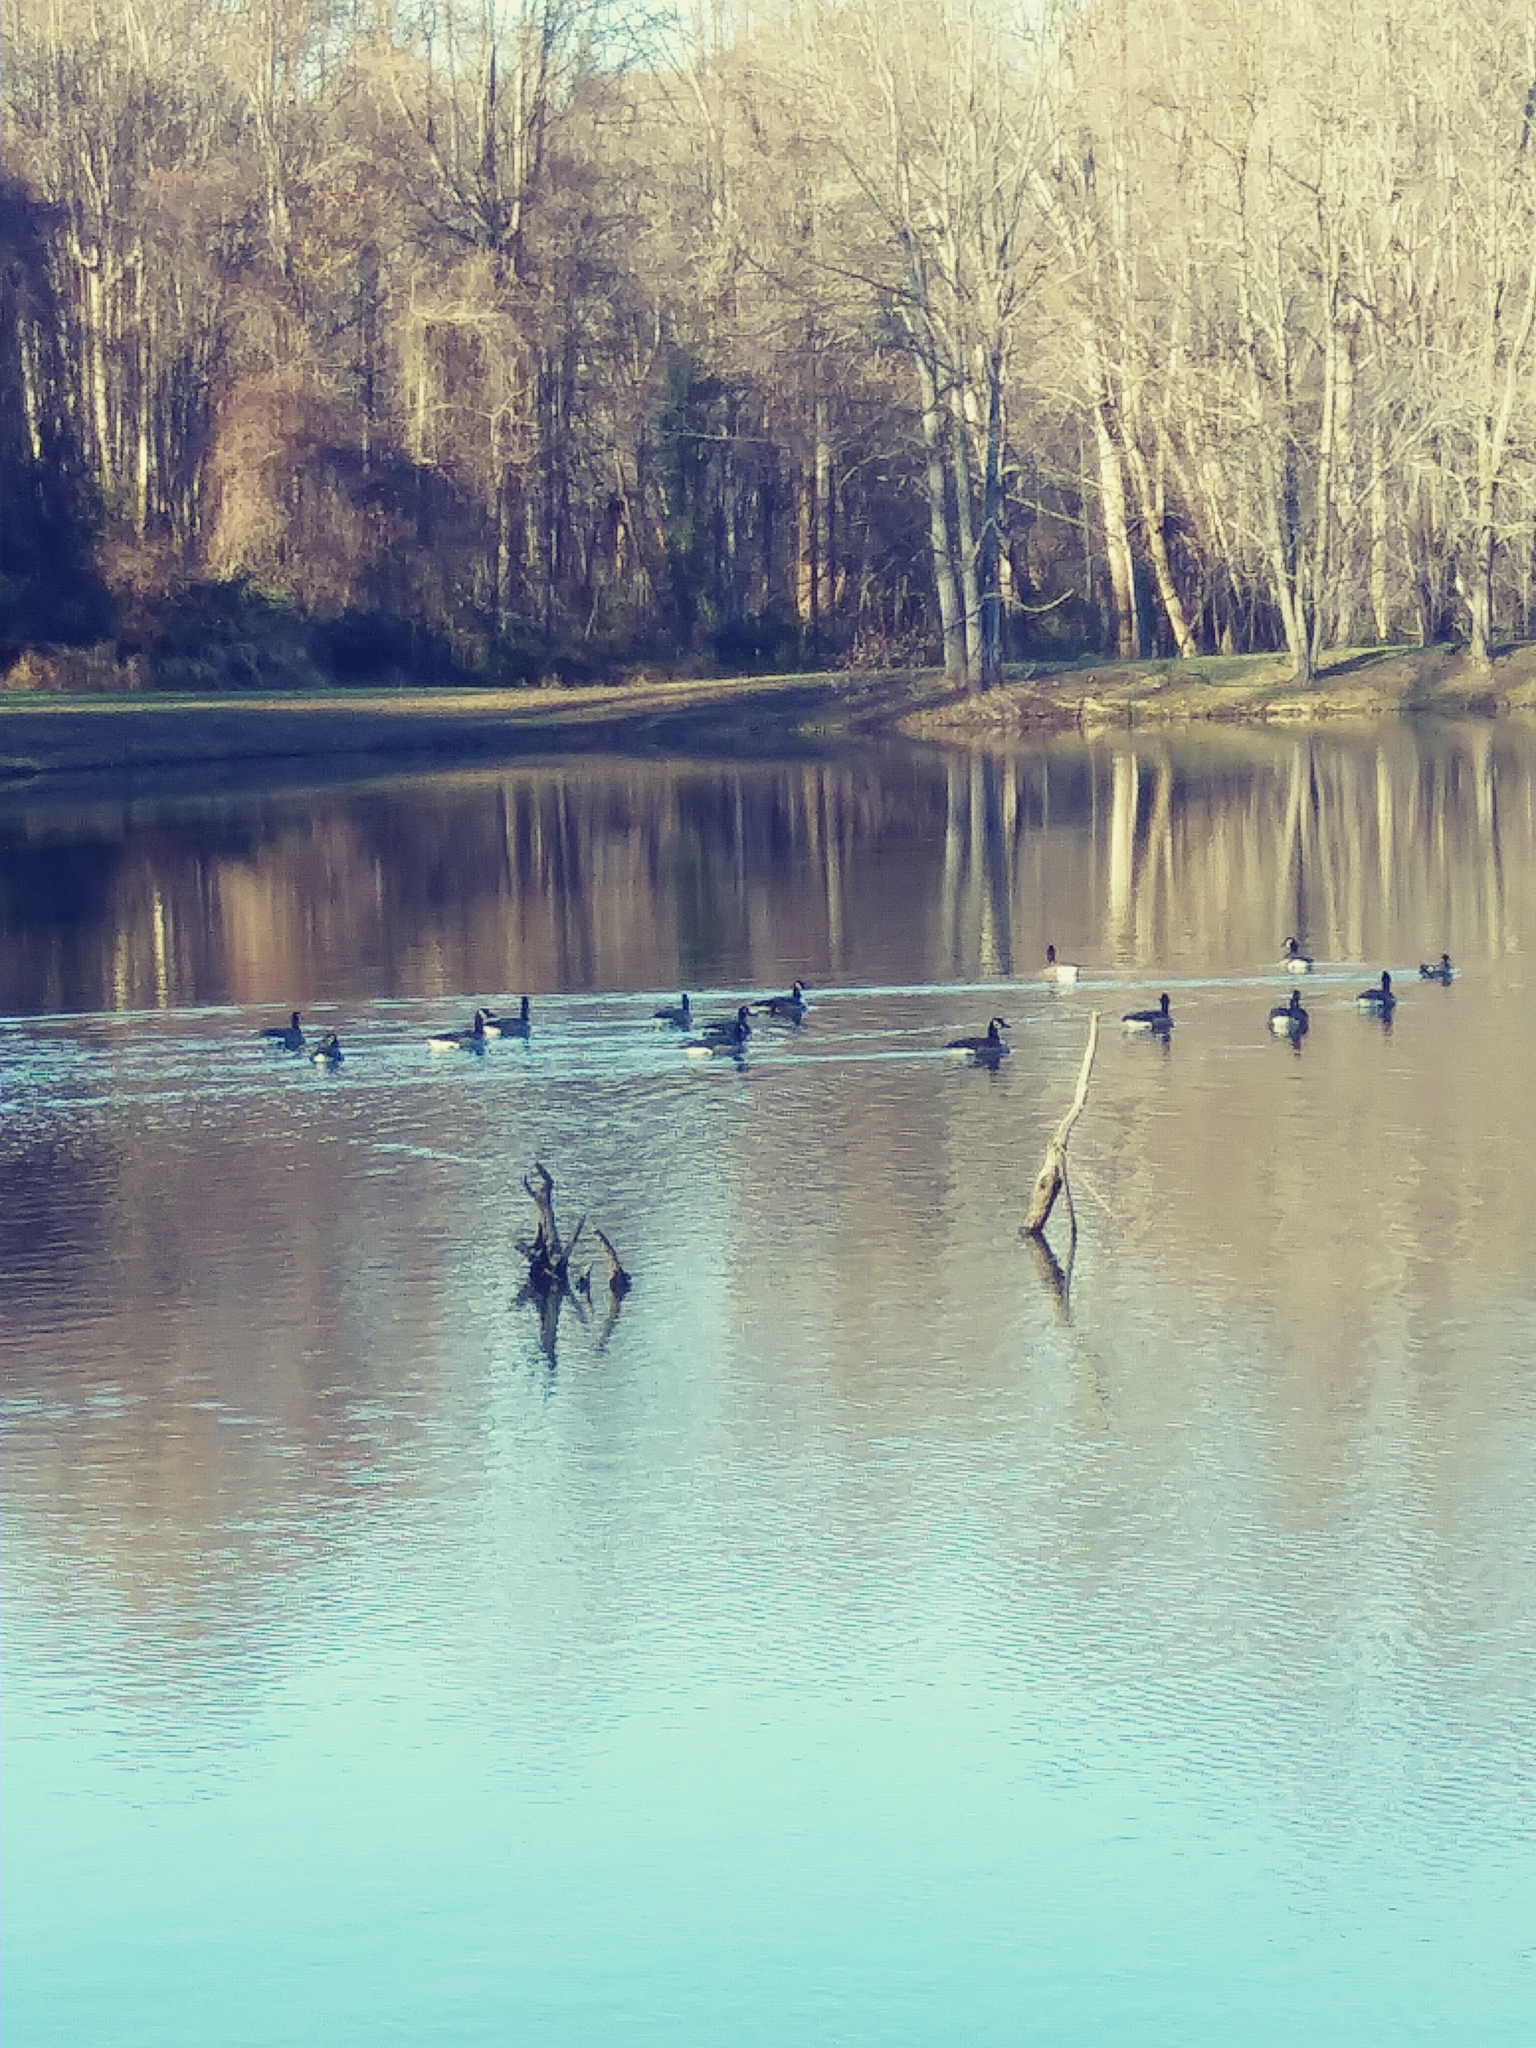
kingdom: Animalia
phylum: Chordata
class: Aves
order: Anseriformes
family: Anatidae
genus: Branta
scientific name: Branta canadensis
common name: Canada goose
